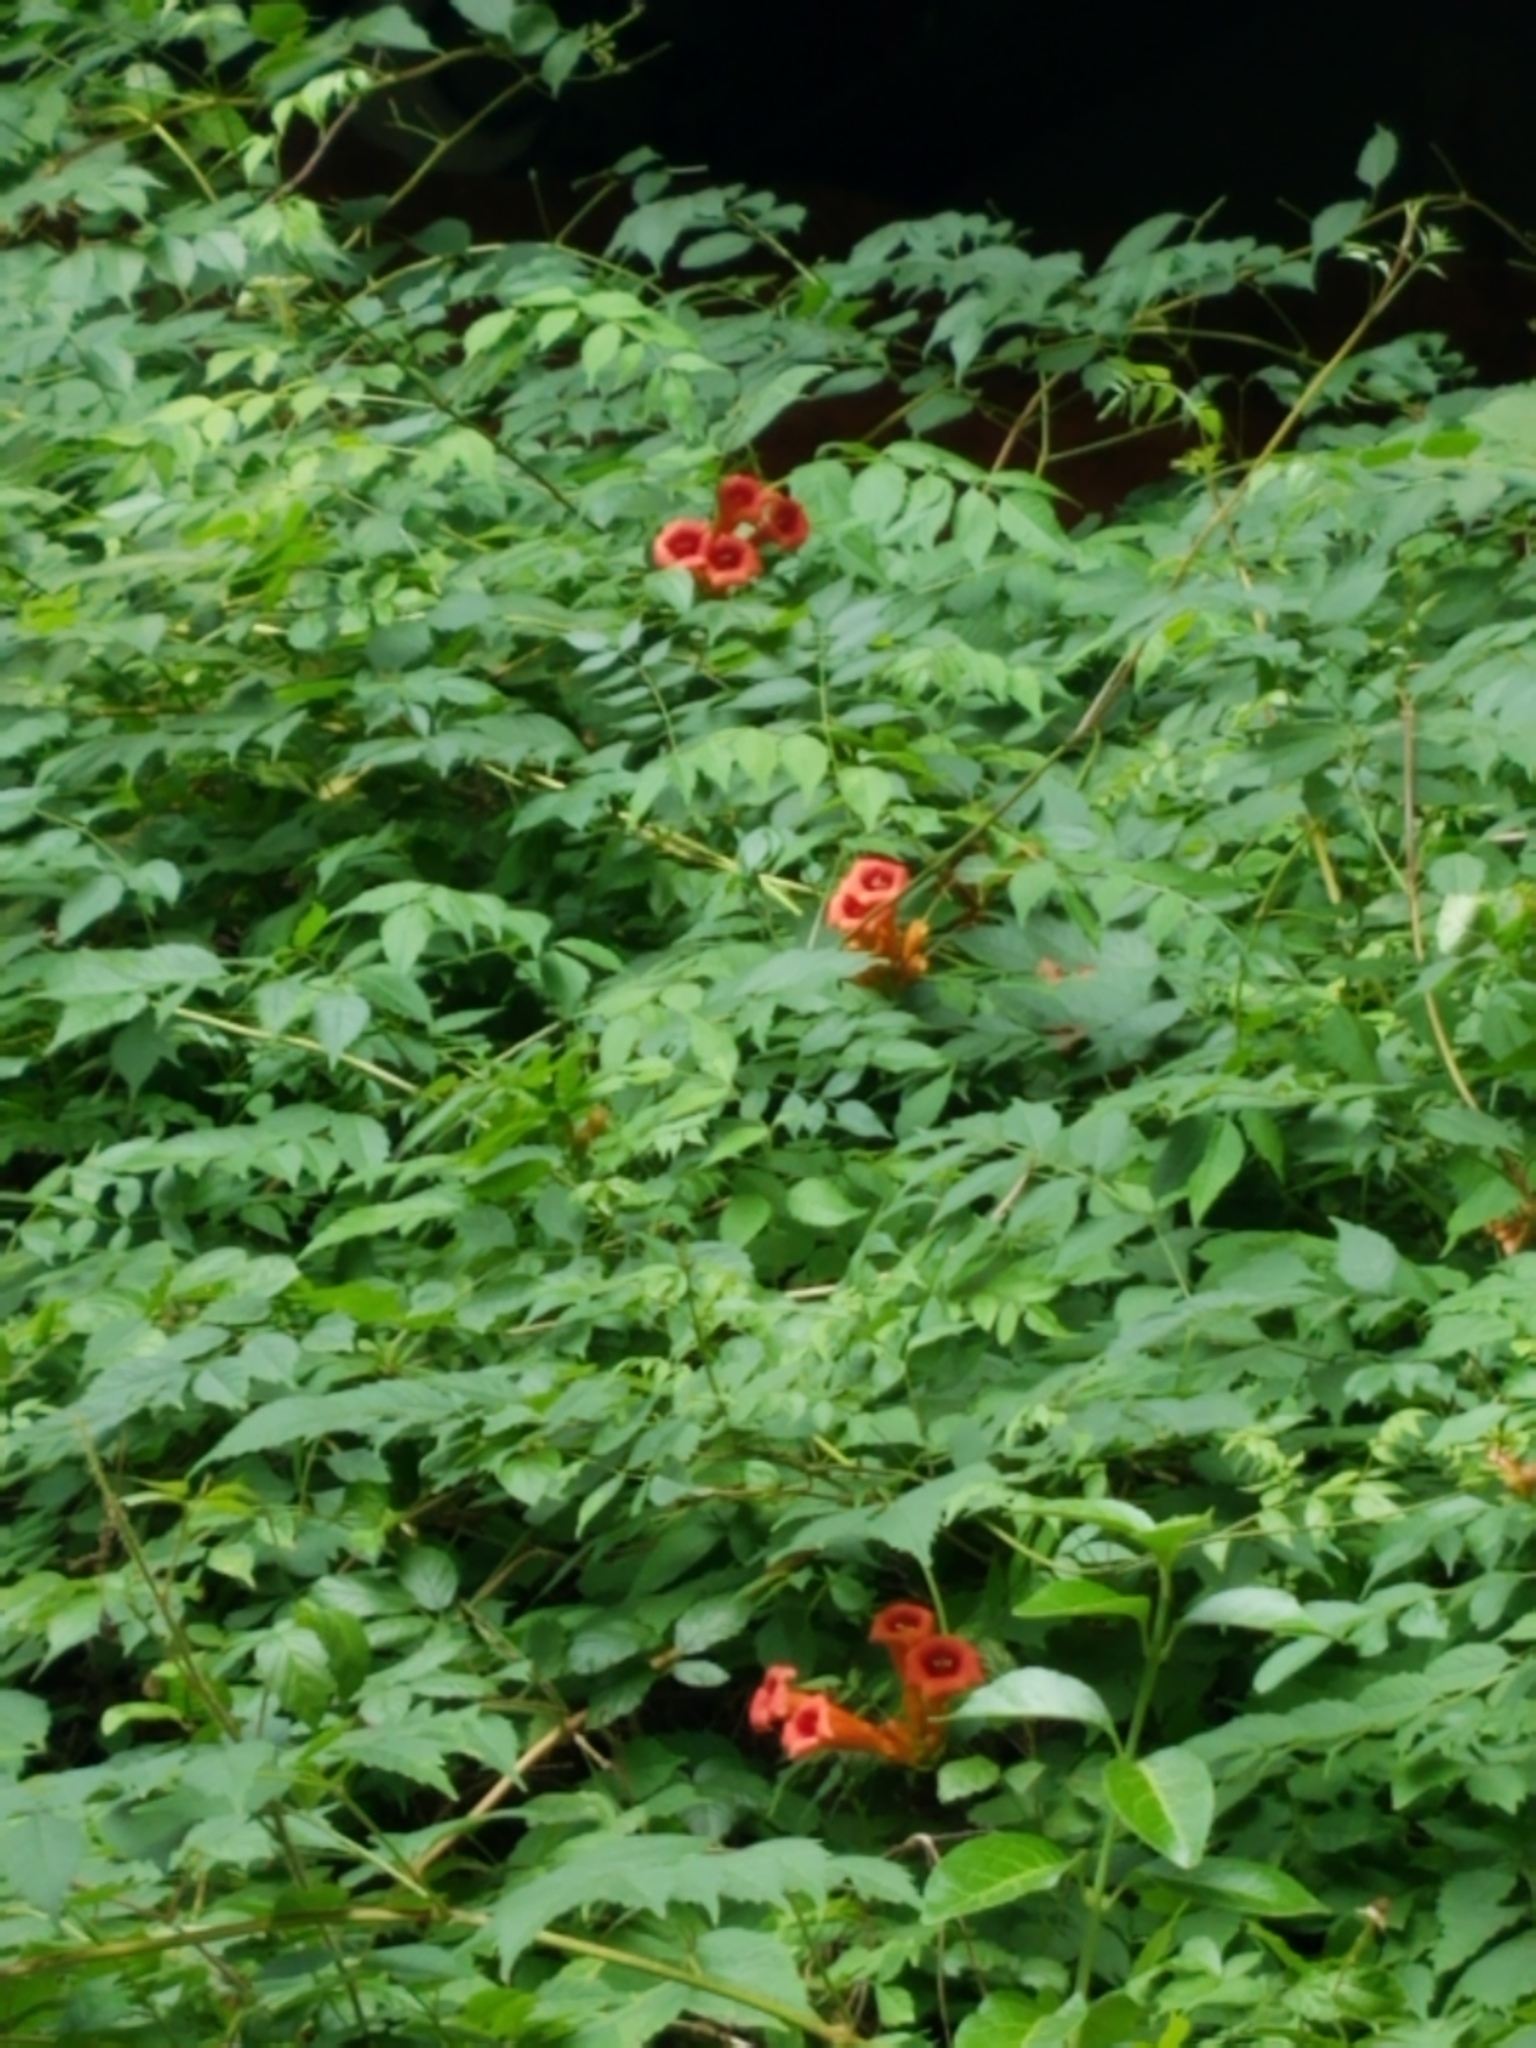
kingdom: Plantae
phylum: Tracheophyta
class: Magnoliopsida
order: Lamiales
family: Bignoniaceae
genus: Campsis
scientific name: Campsis radicans
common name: Trumpet-creeper
